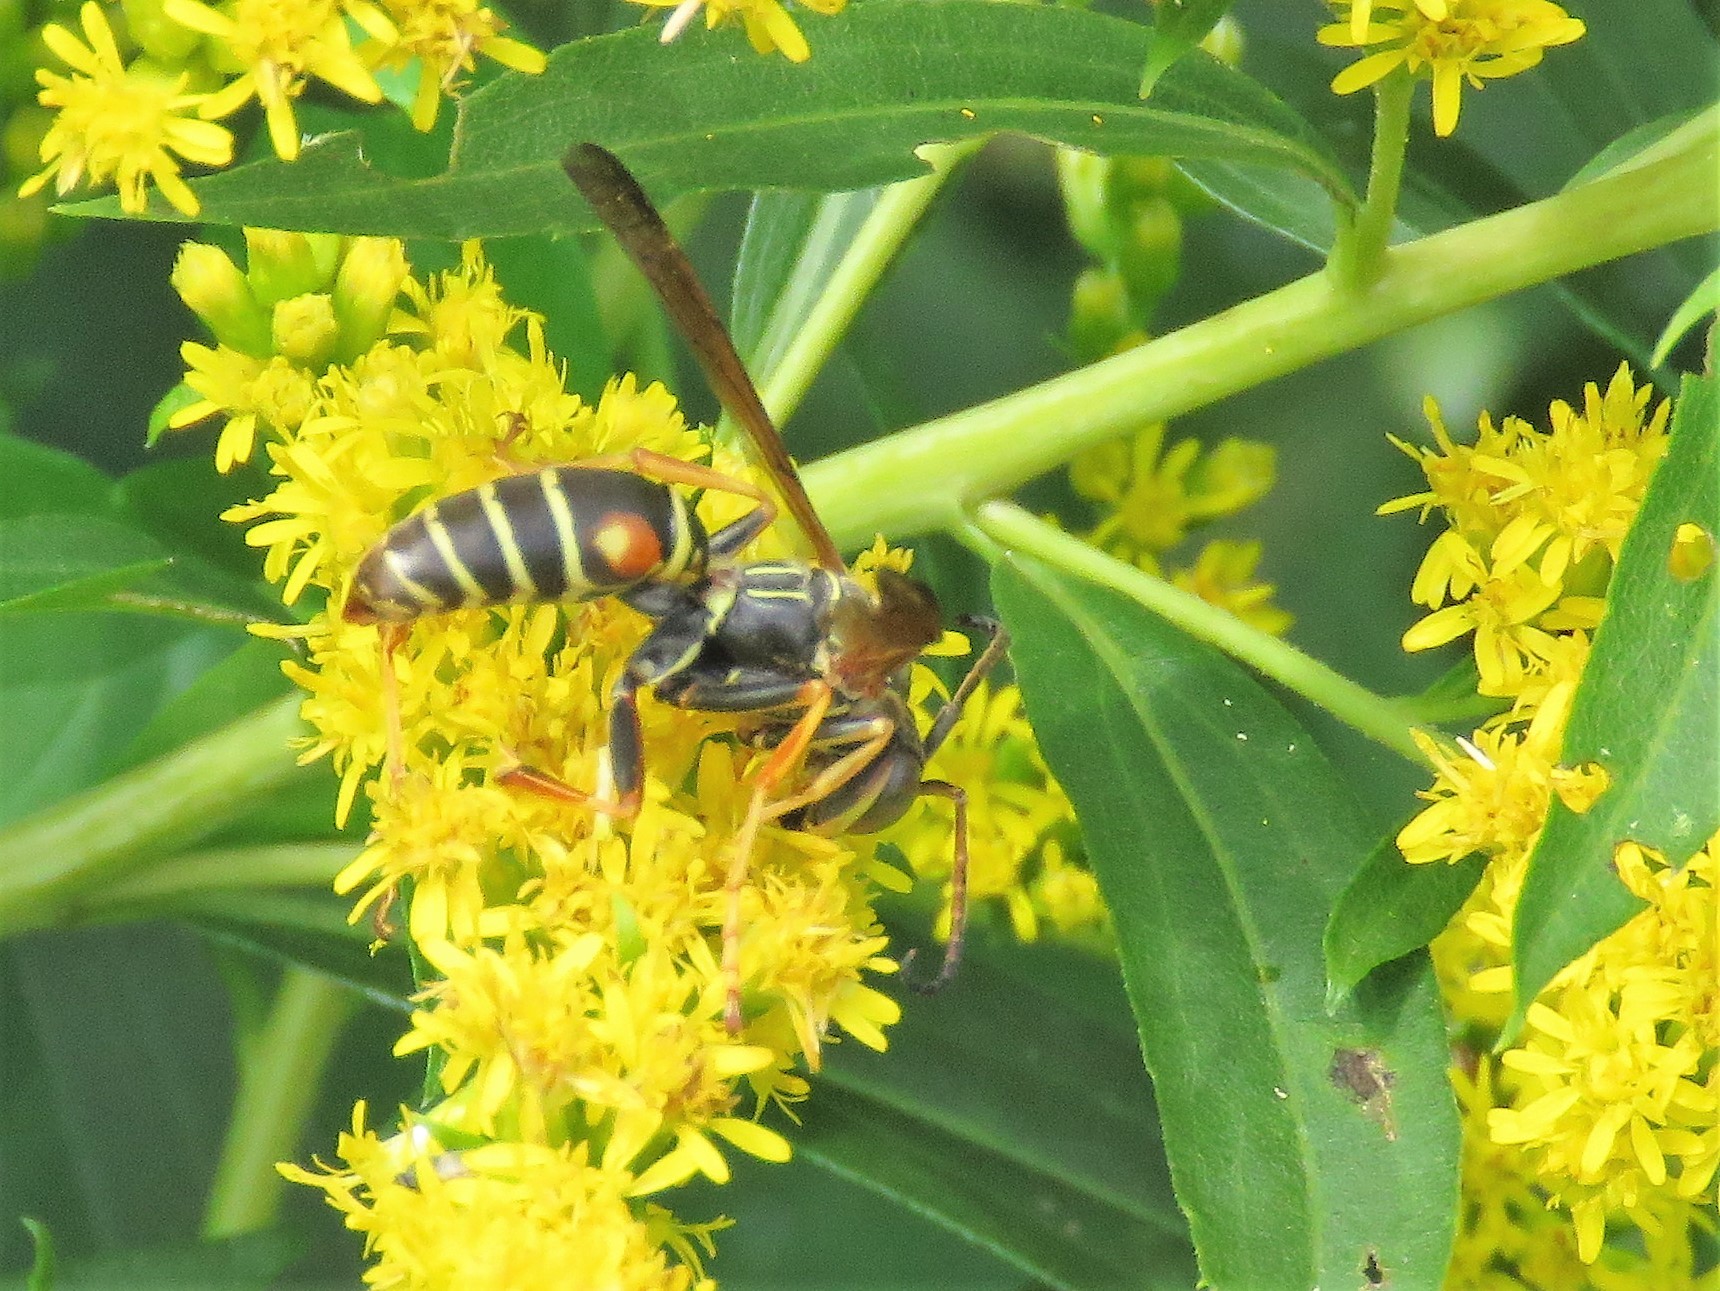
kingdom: Animalia
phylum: Arthropoda
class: Insecta
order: Hymenoptera
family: Eumenidae
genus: Polistes
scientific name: Polistes fuscatus
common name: Dark paper wasp
